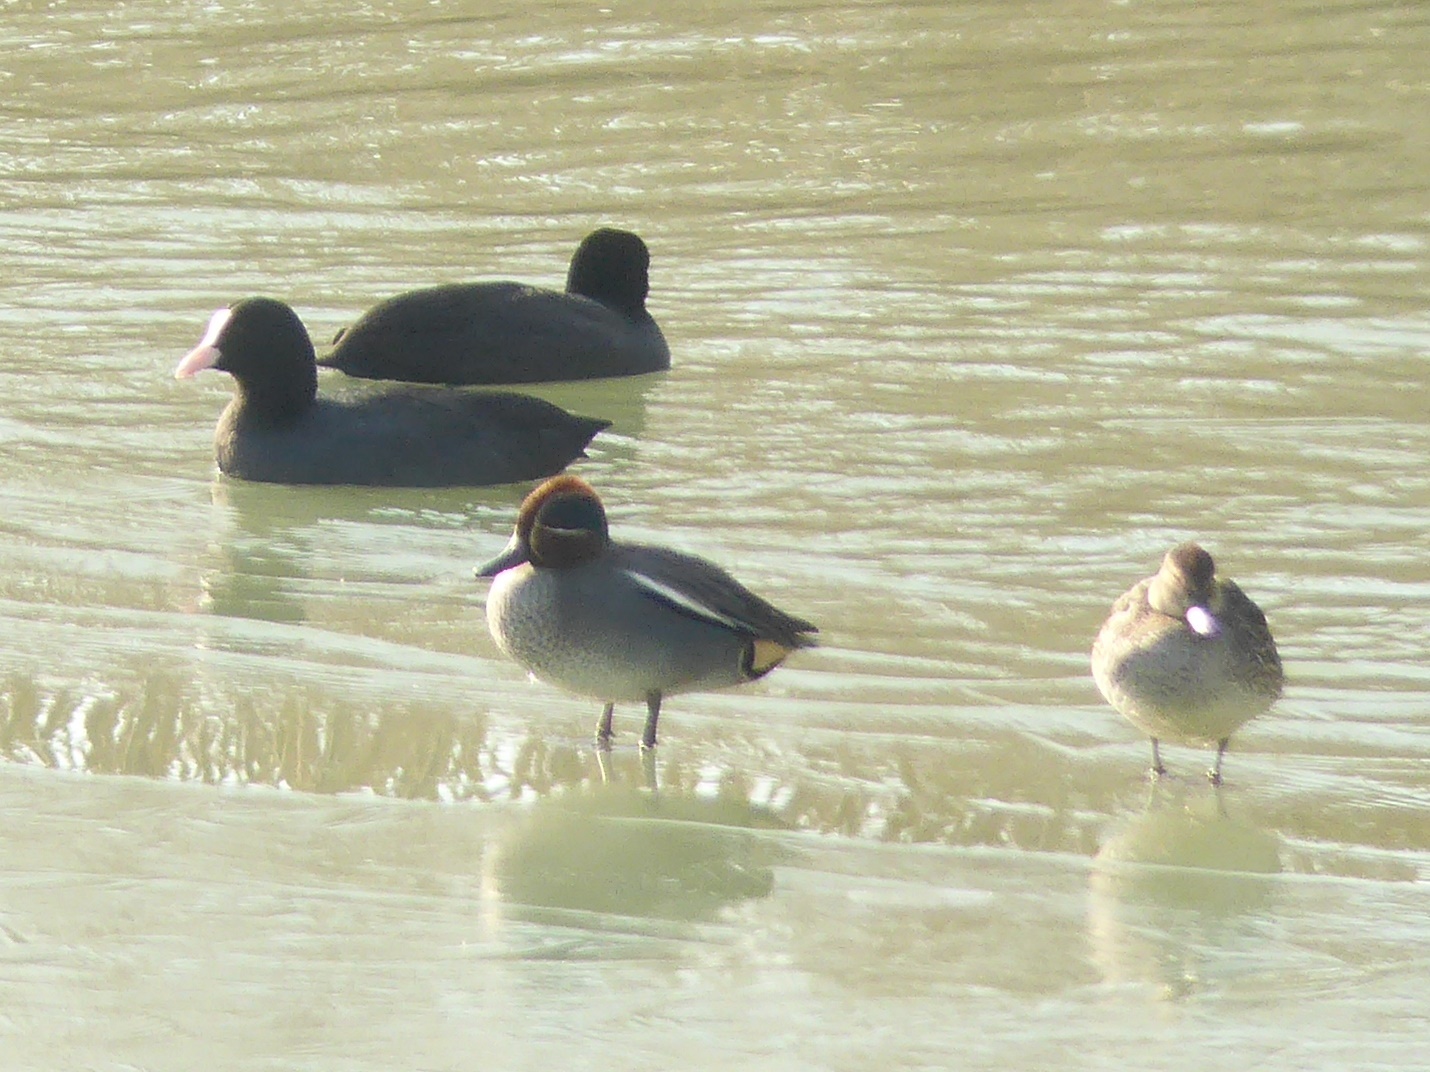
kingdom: Animalia
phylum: Chordata
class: Aves
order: Anseriformes
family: Anatidae
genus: Anas
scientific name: Anas crecca
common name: Eurasian teal
